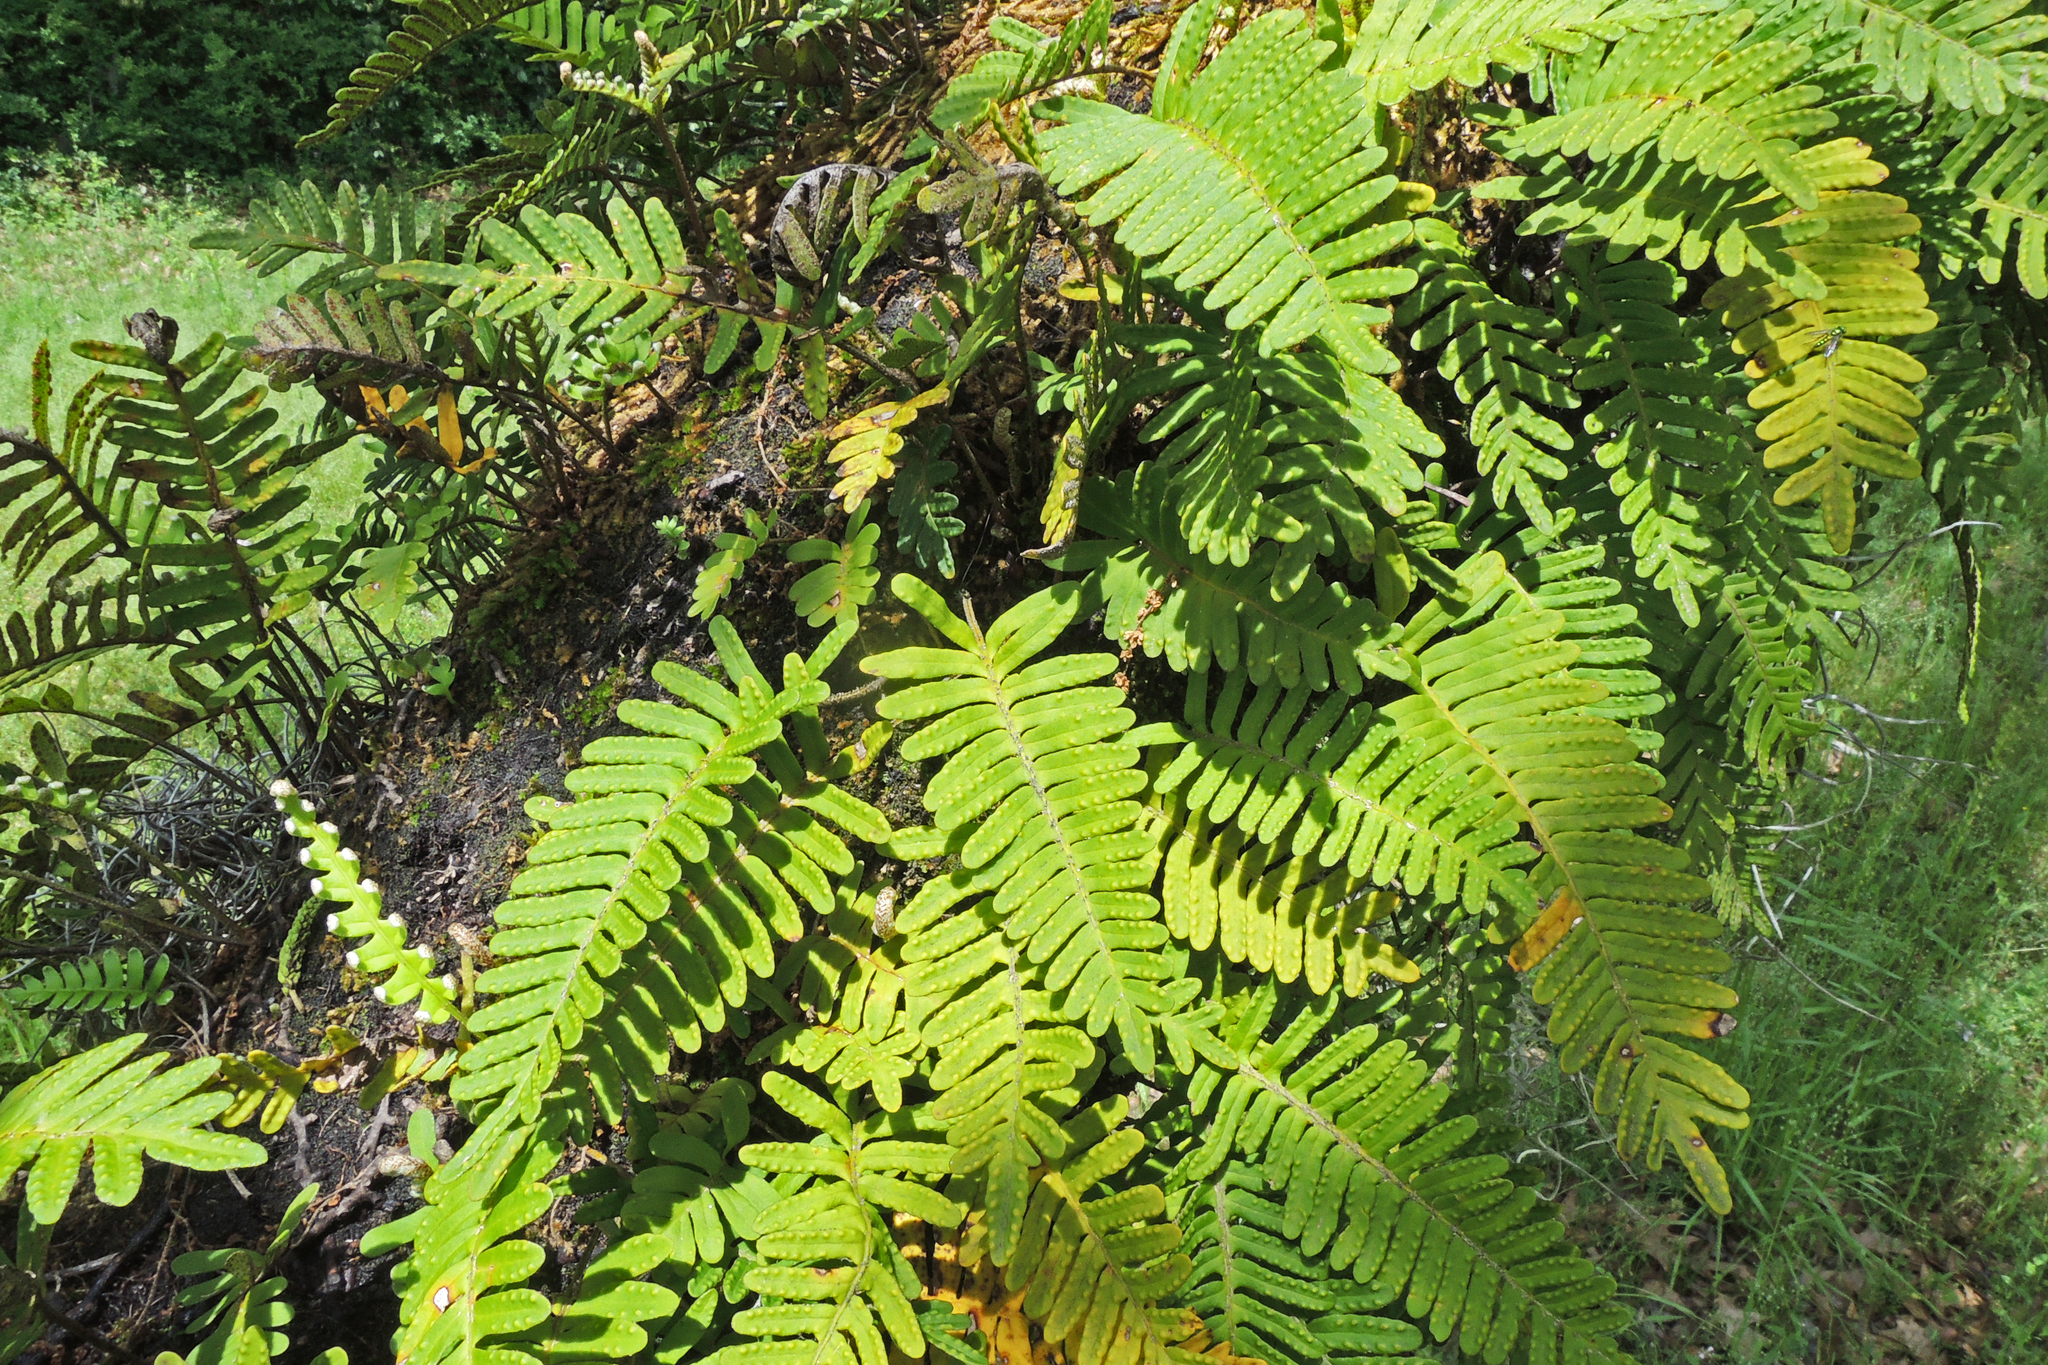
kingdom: Plantae
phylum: Tracheophyta
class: Polypodiopsida
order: Polypodiales
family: Polypodiaceae
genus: Pleopeltis
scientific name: Pleopeltis michauxiana
